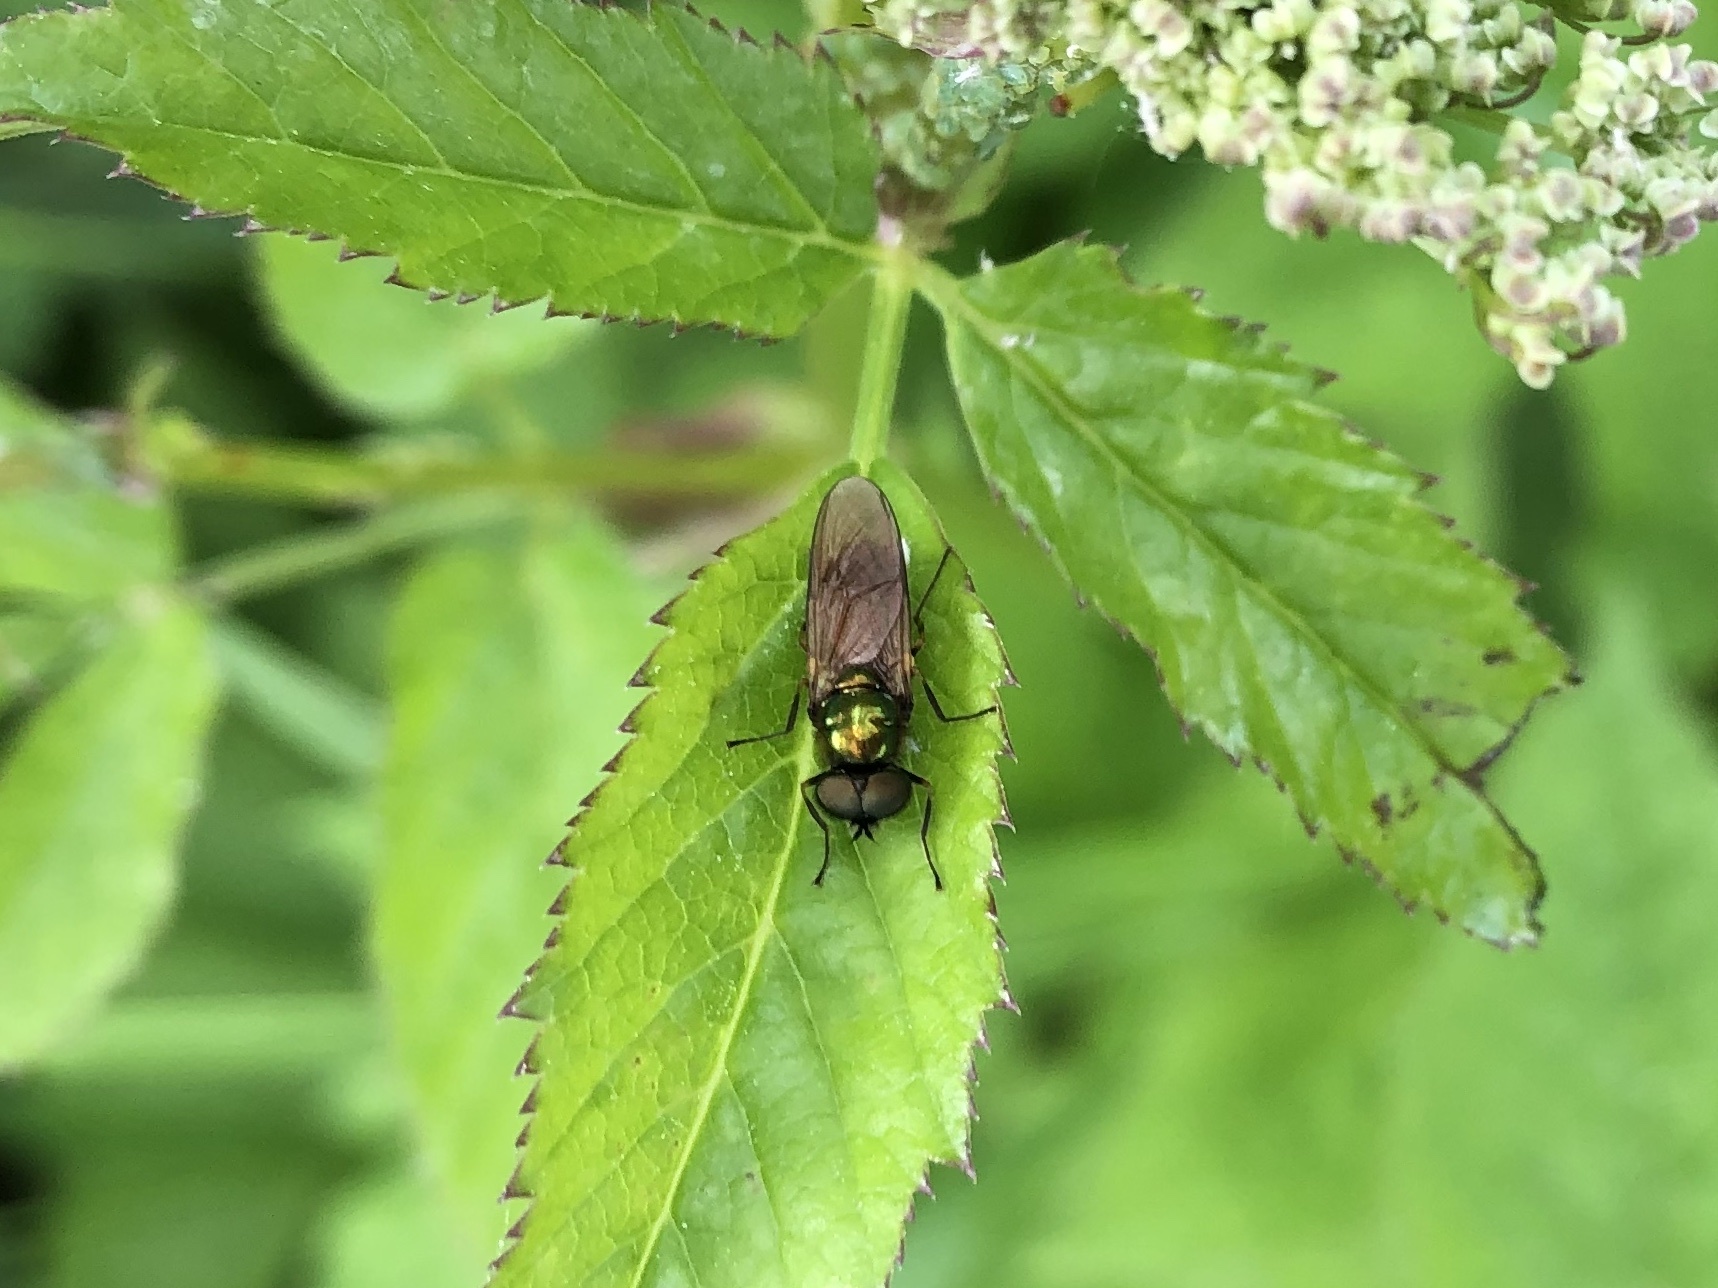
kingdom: Animalia
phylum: Arthropoda
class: Insecta
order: Diptera
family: Stratiomyidae
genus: Chloromyia
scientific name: Chloromyia formosa
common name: Soldier fly
